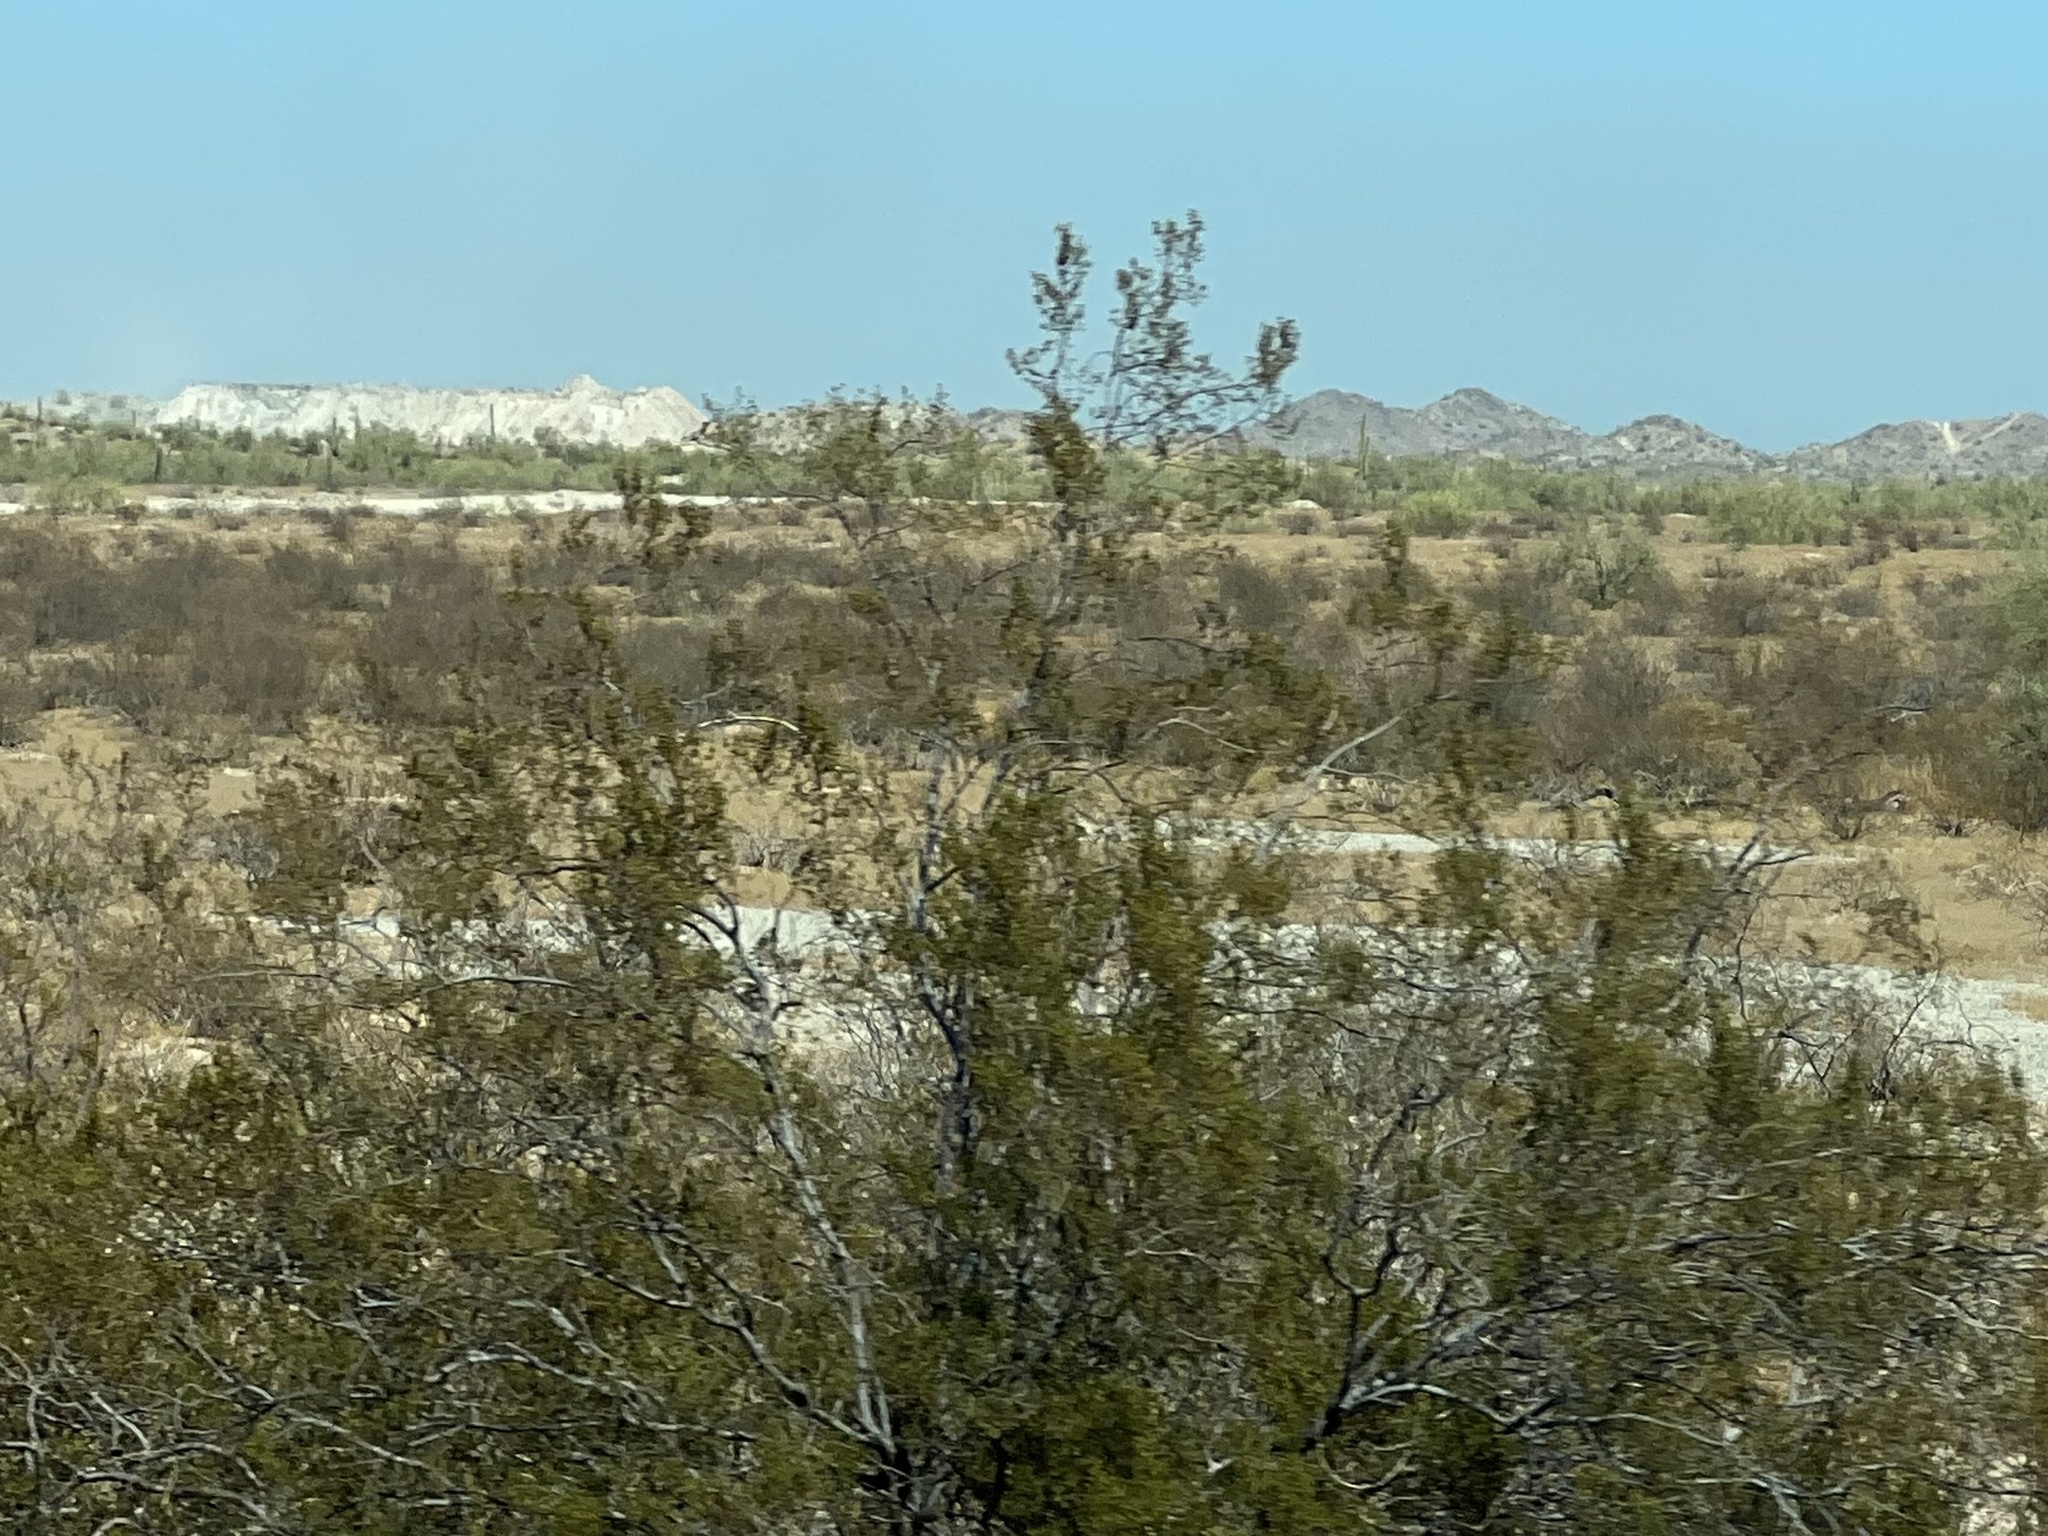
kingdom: Plantae
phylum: Tracheophyta
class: Magnoliopsida
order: Zygophyllales
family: Zygophyllaceae
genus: Larrea
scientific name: Larrea tridentata
